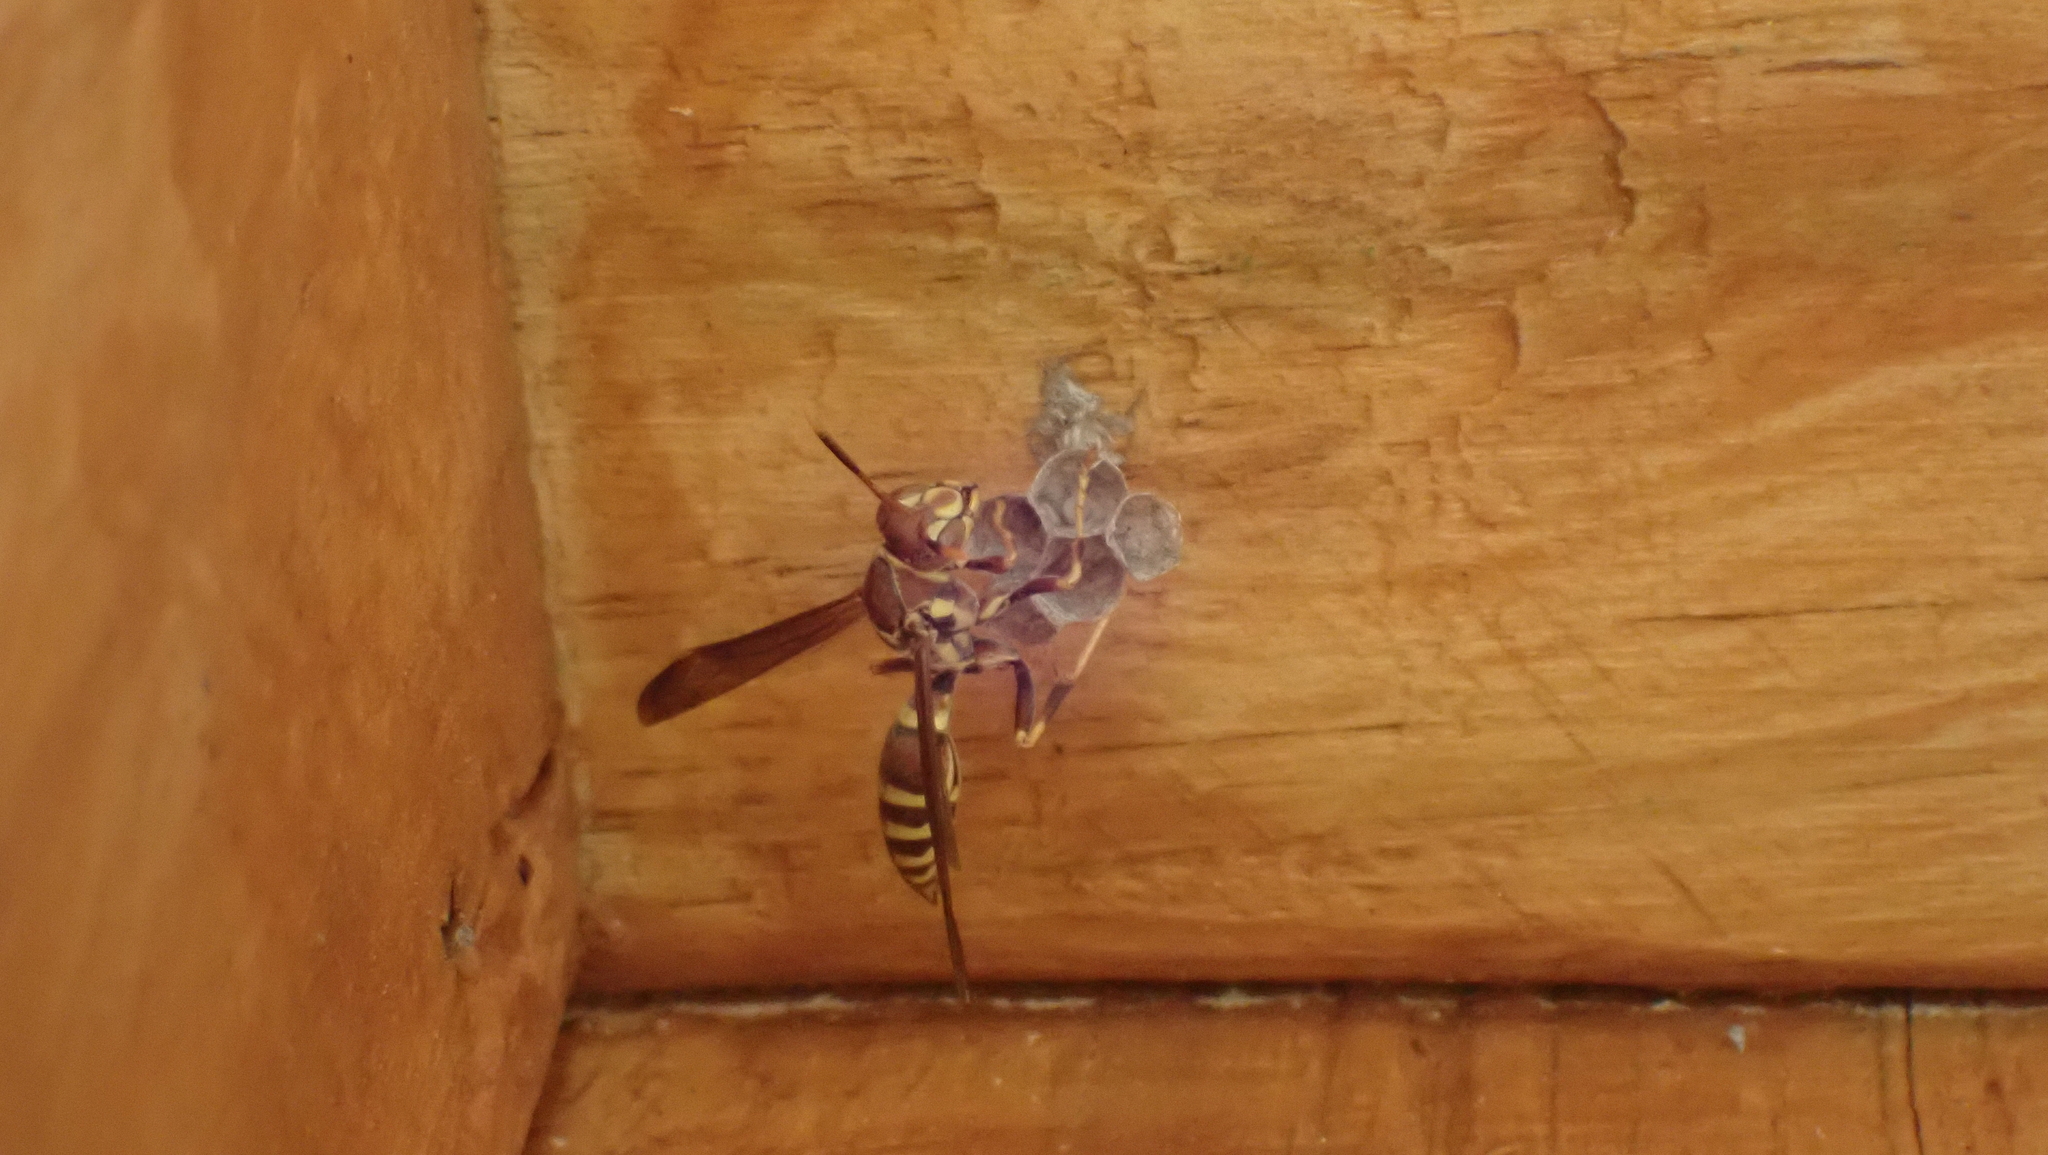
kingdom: Animalia
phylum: Arthropoda
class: Insecta
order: Hymenoptera
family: Eumenidae
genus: Polistes
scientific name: Polistes exclamans
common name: Paper wasp
